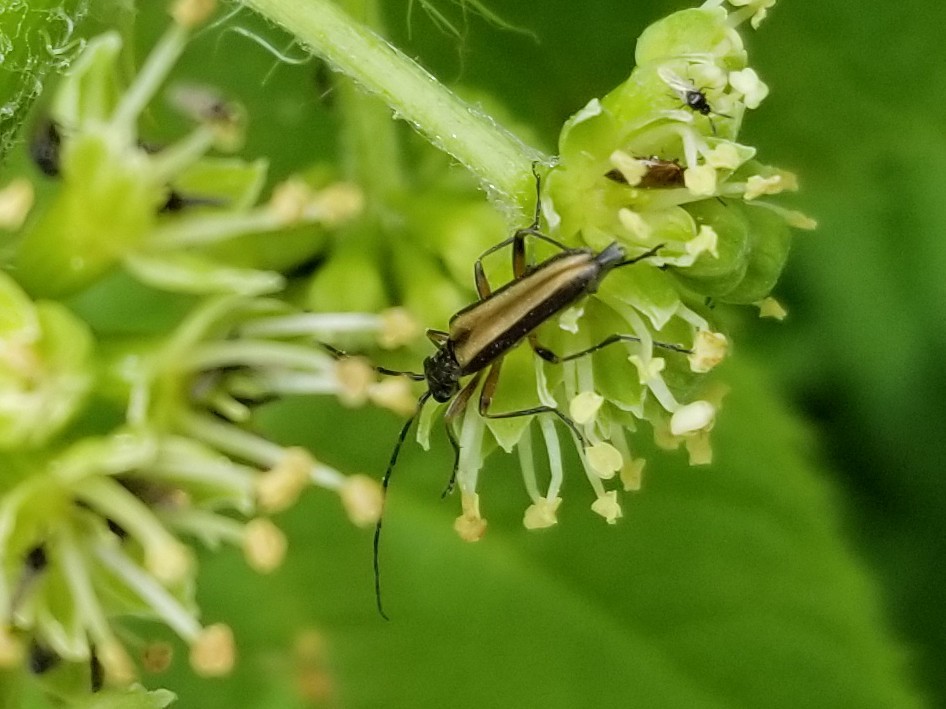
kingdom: Animalia
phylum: Arthropoda
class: Insecta
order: Coleoptera
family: Cerambycidae
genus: Leptalia
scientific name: Leptalia macilenta
